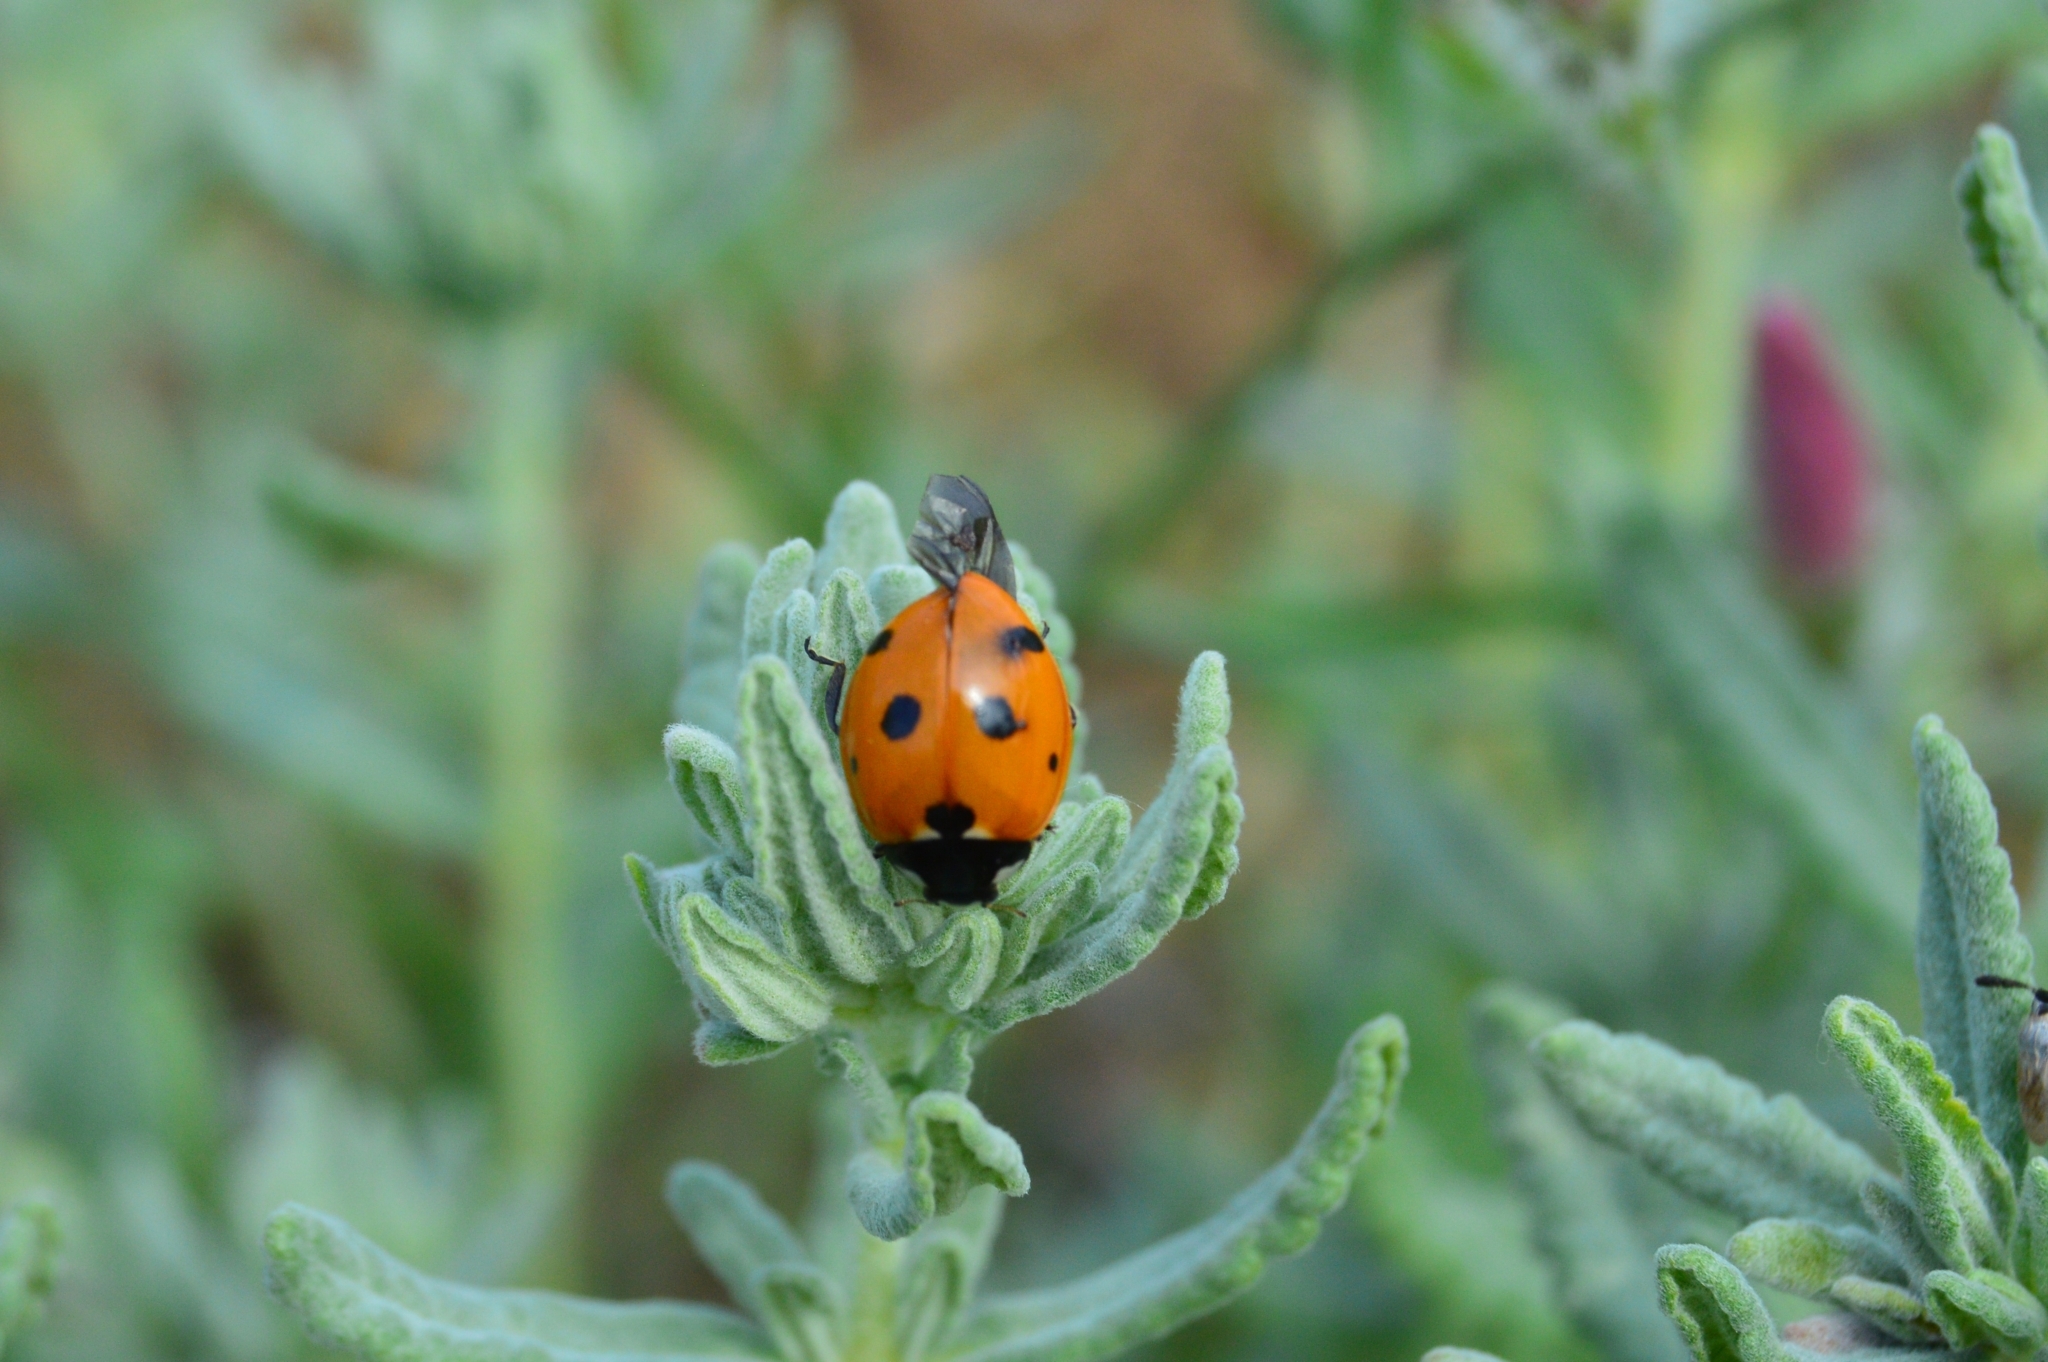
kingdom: Animalia
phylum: Arthropoda
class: Insecta
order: Coleoptera
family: Coccinellidae
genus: Coccinella
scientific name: Coccinella septempunctata
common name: Sevenspotted lady beetle
